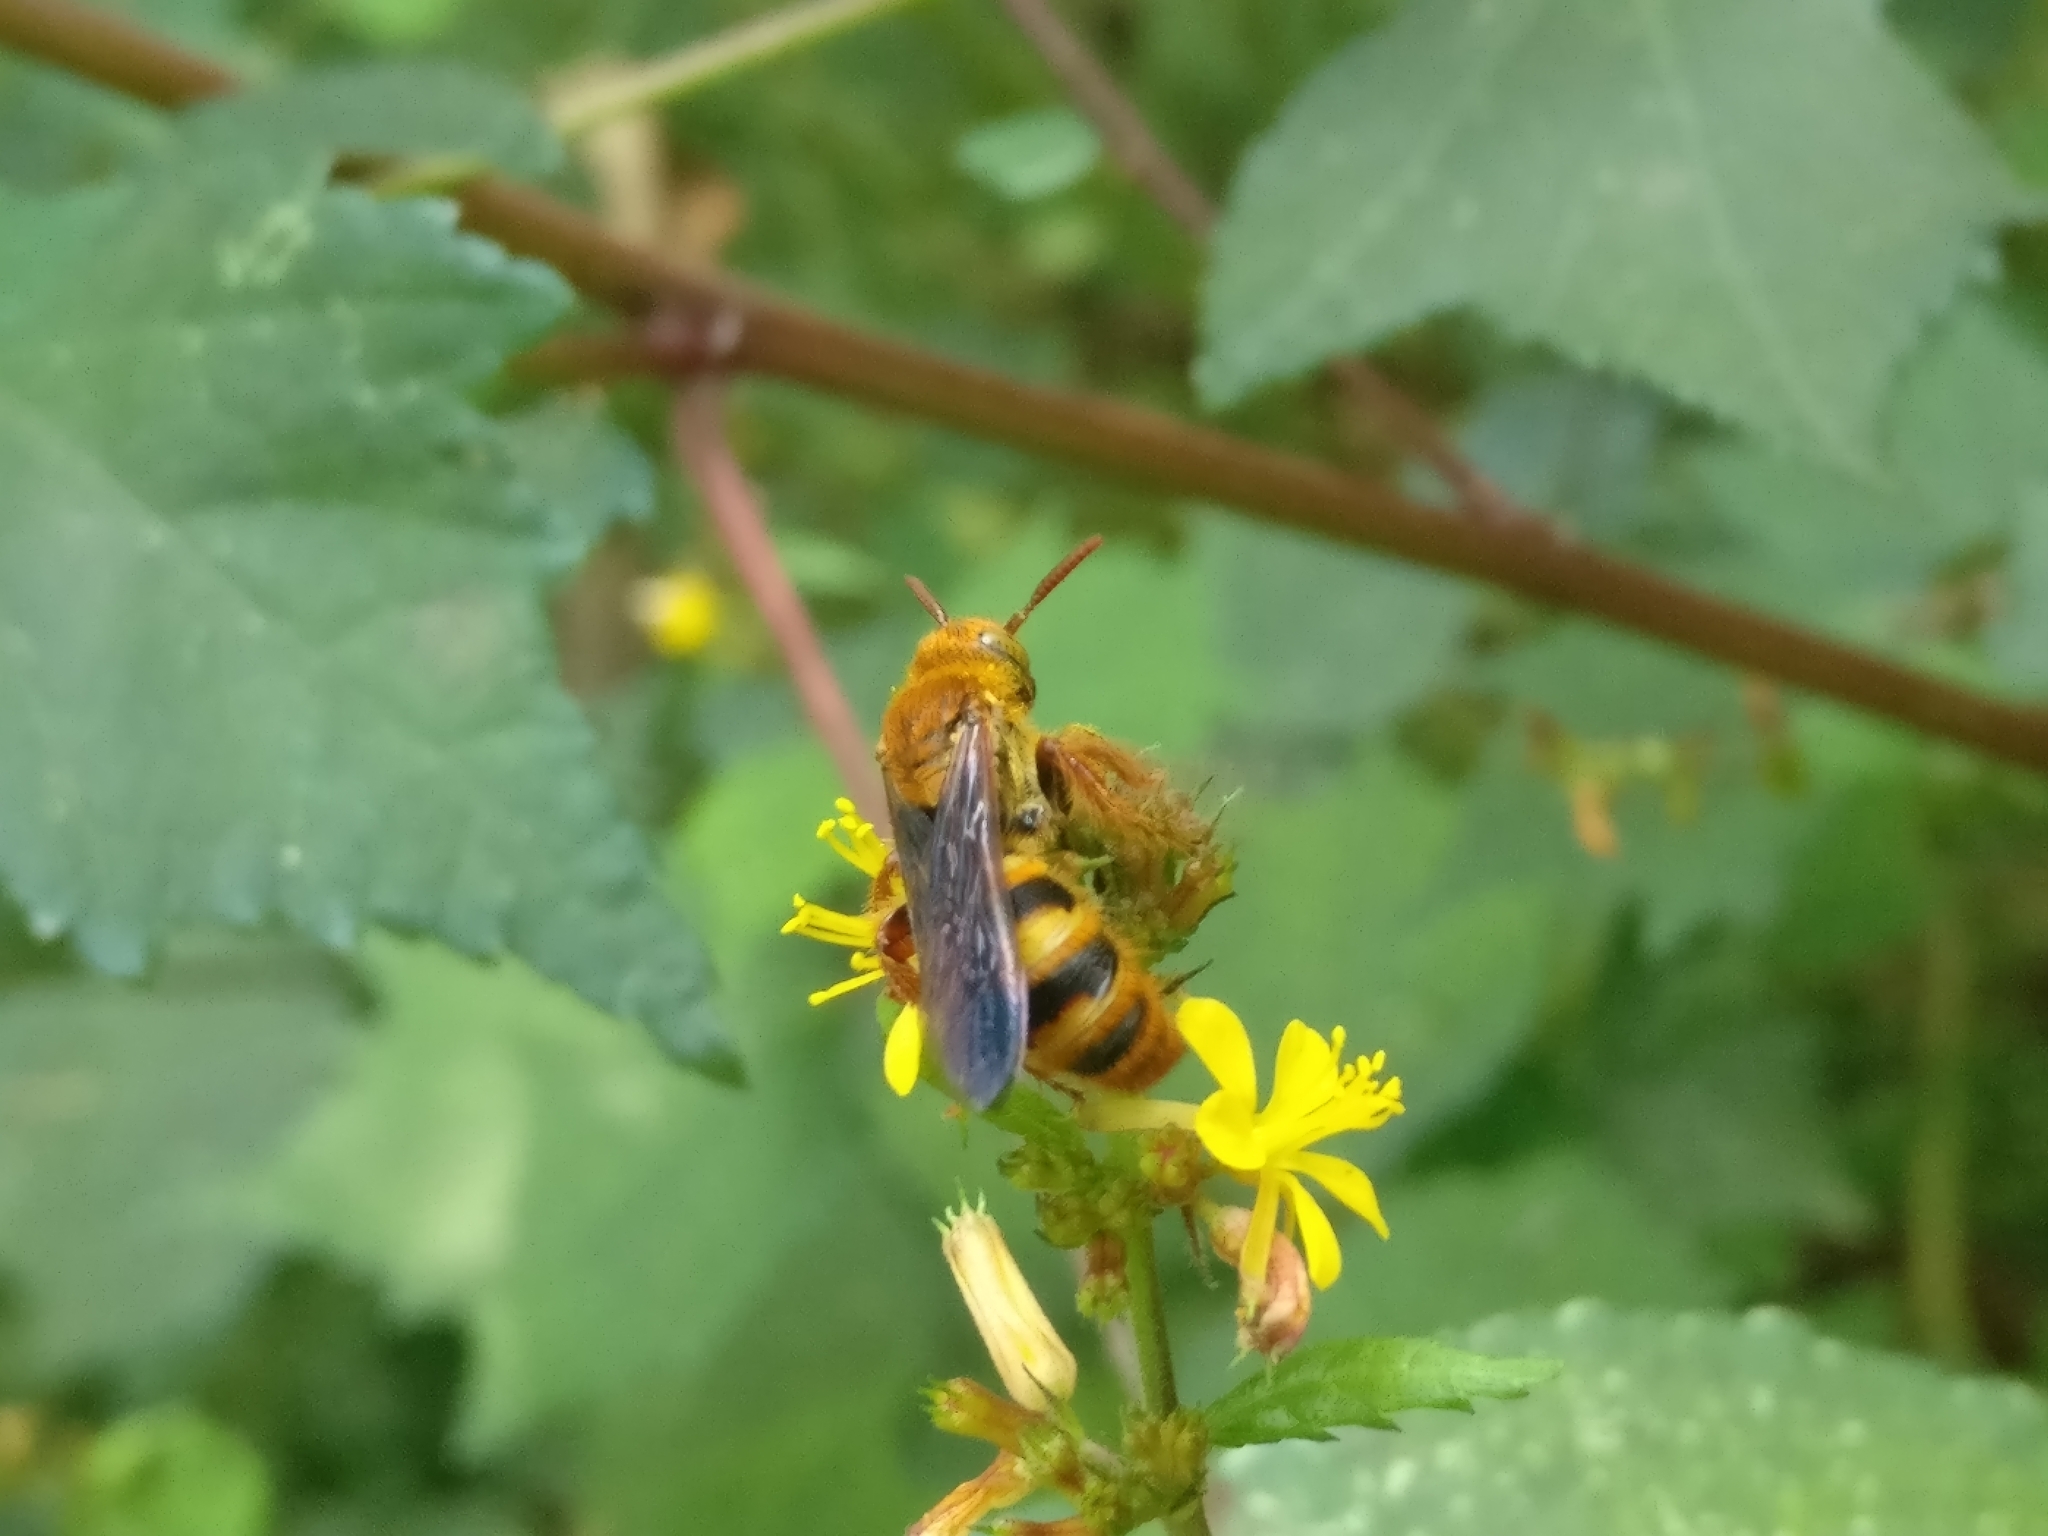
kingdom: Animalia
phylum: Arthropoda
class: Insecta
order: Hymenoptera
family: Scoliidae
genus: Phalerimeris
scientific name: Phalerimeris
